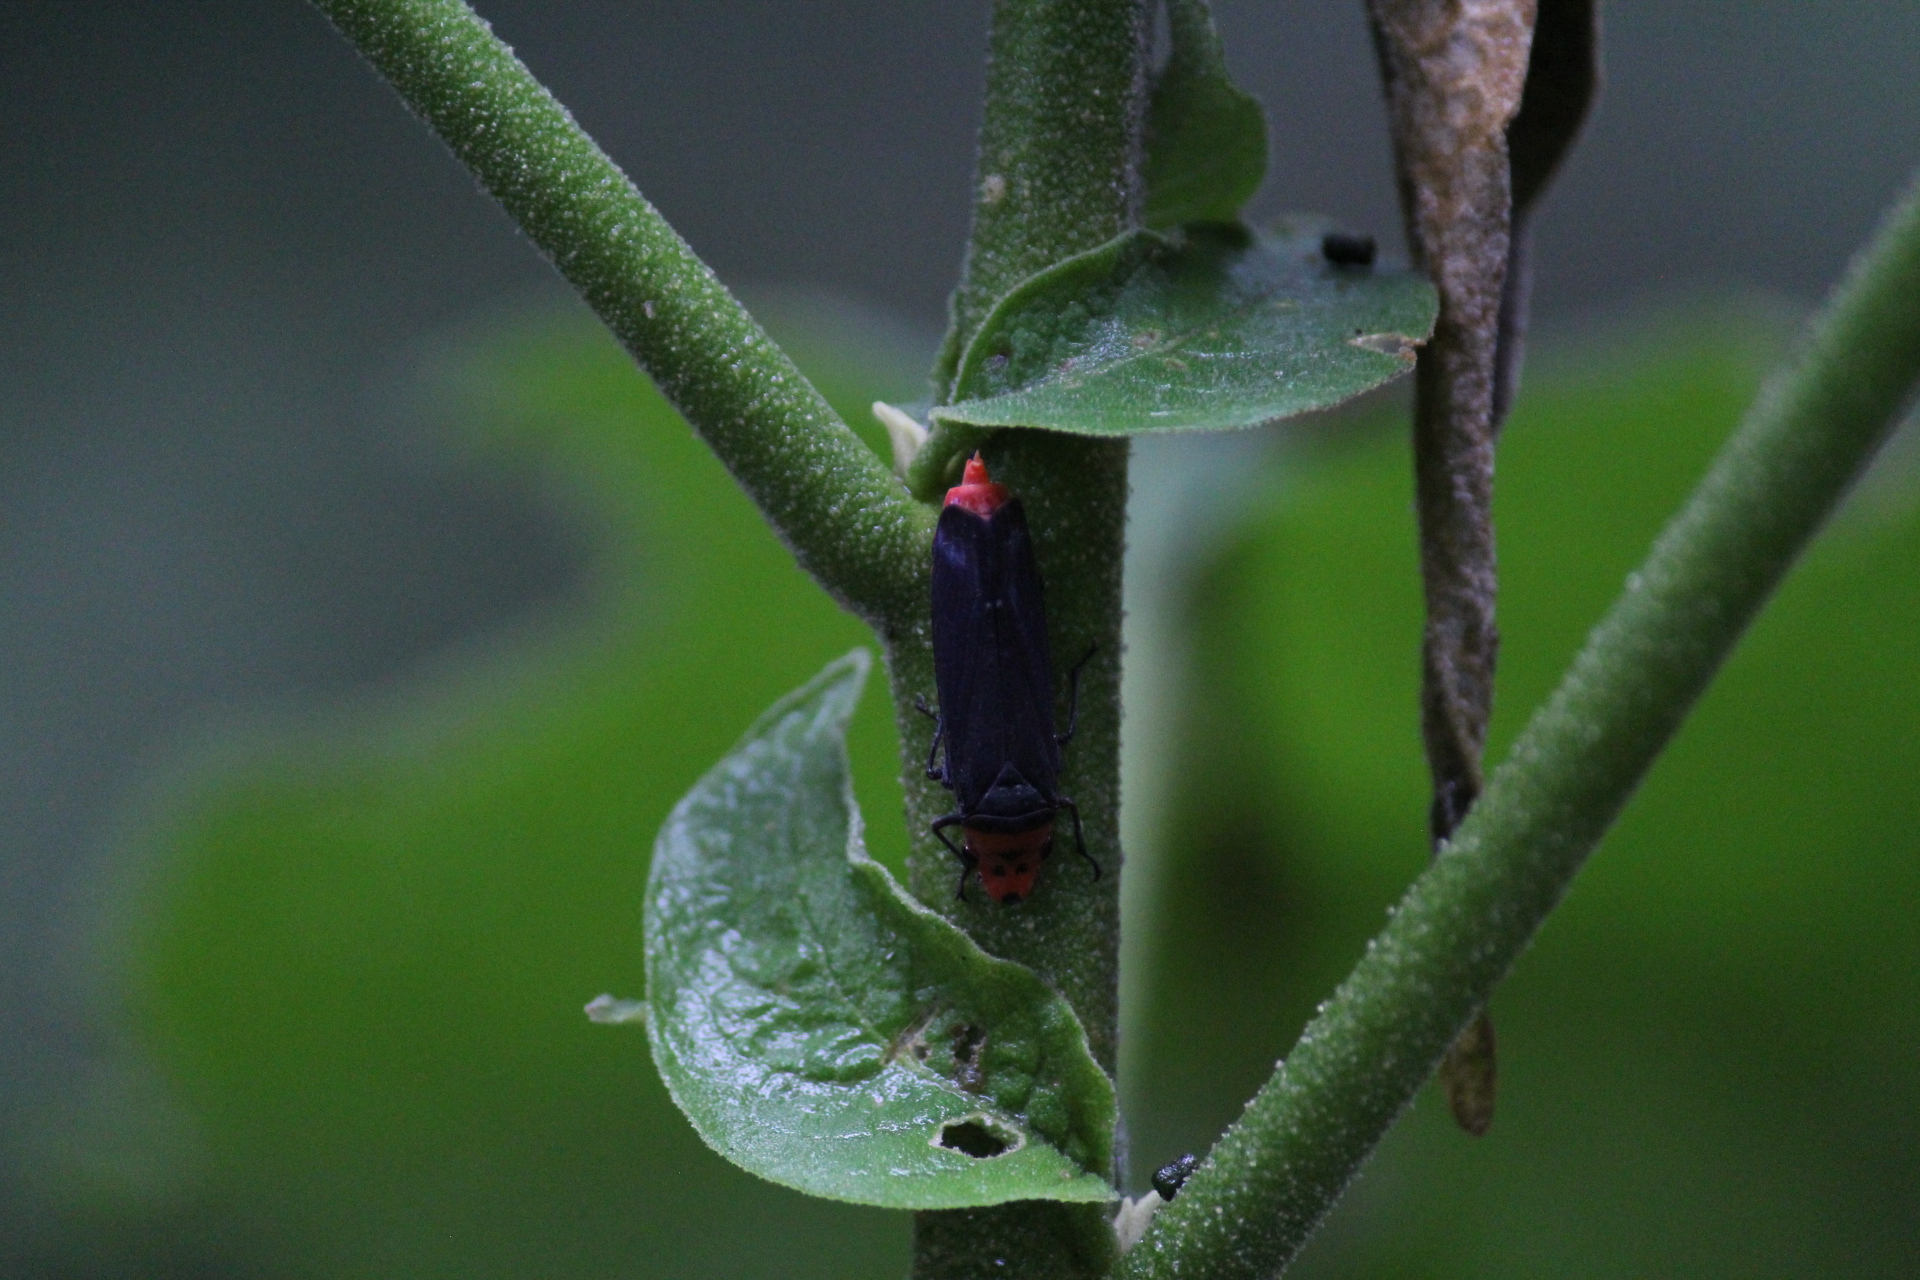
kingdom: Animalia
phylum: Arthropoda
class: Insecta
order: Hemiptera
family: Cicadellidae
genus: Aulacizes
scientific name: Aulacizes quadripunctata
